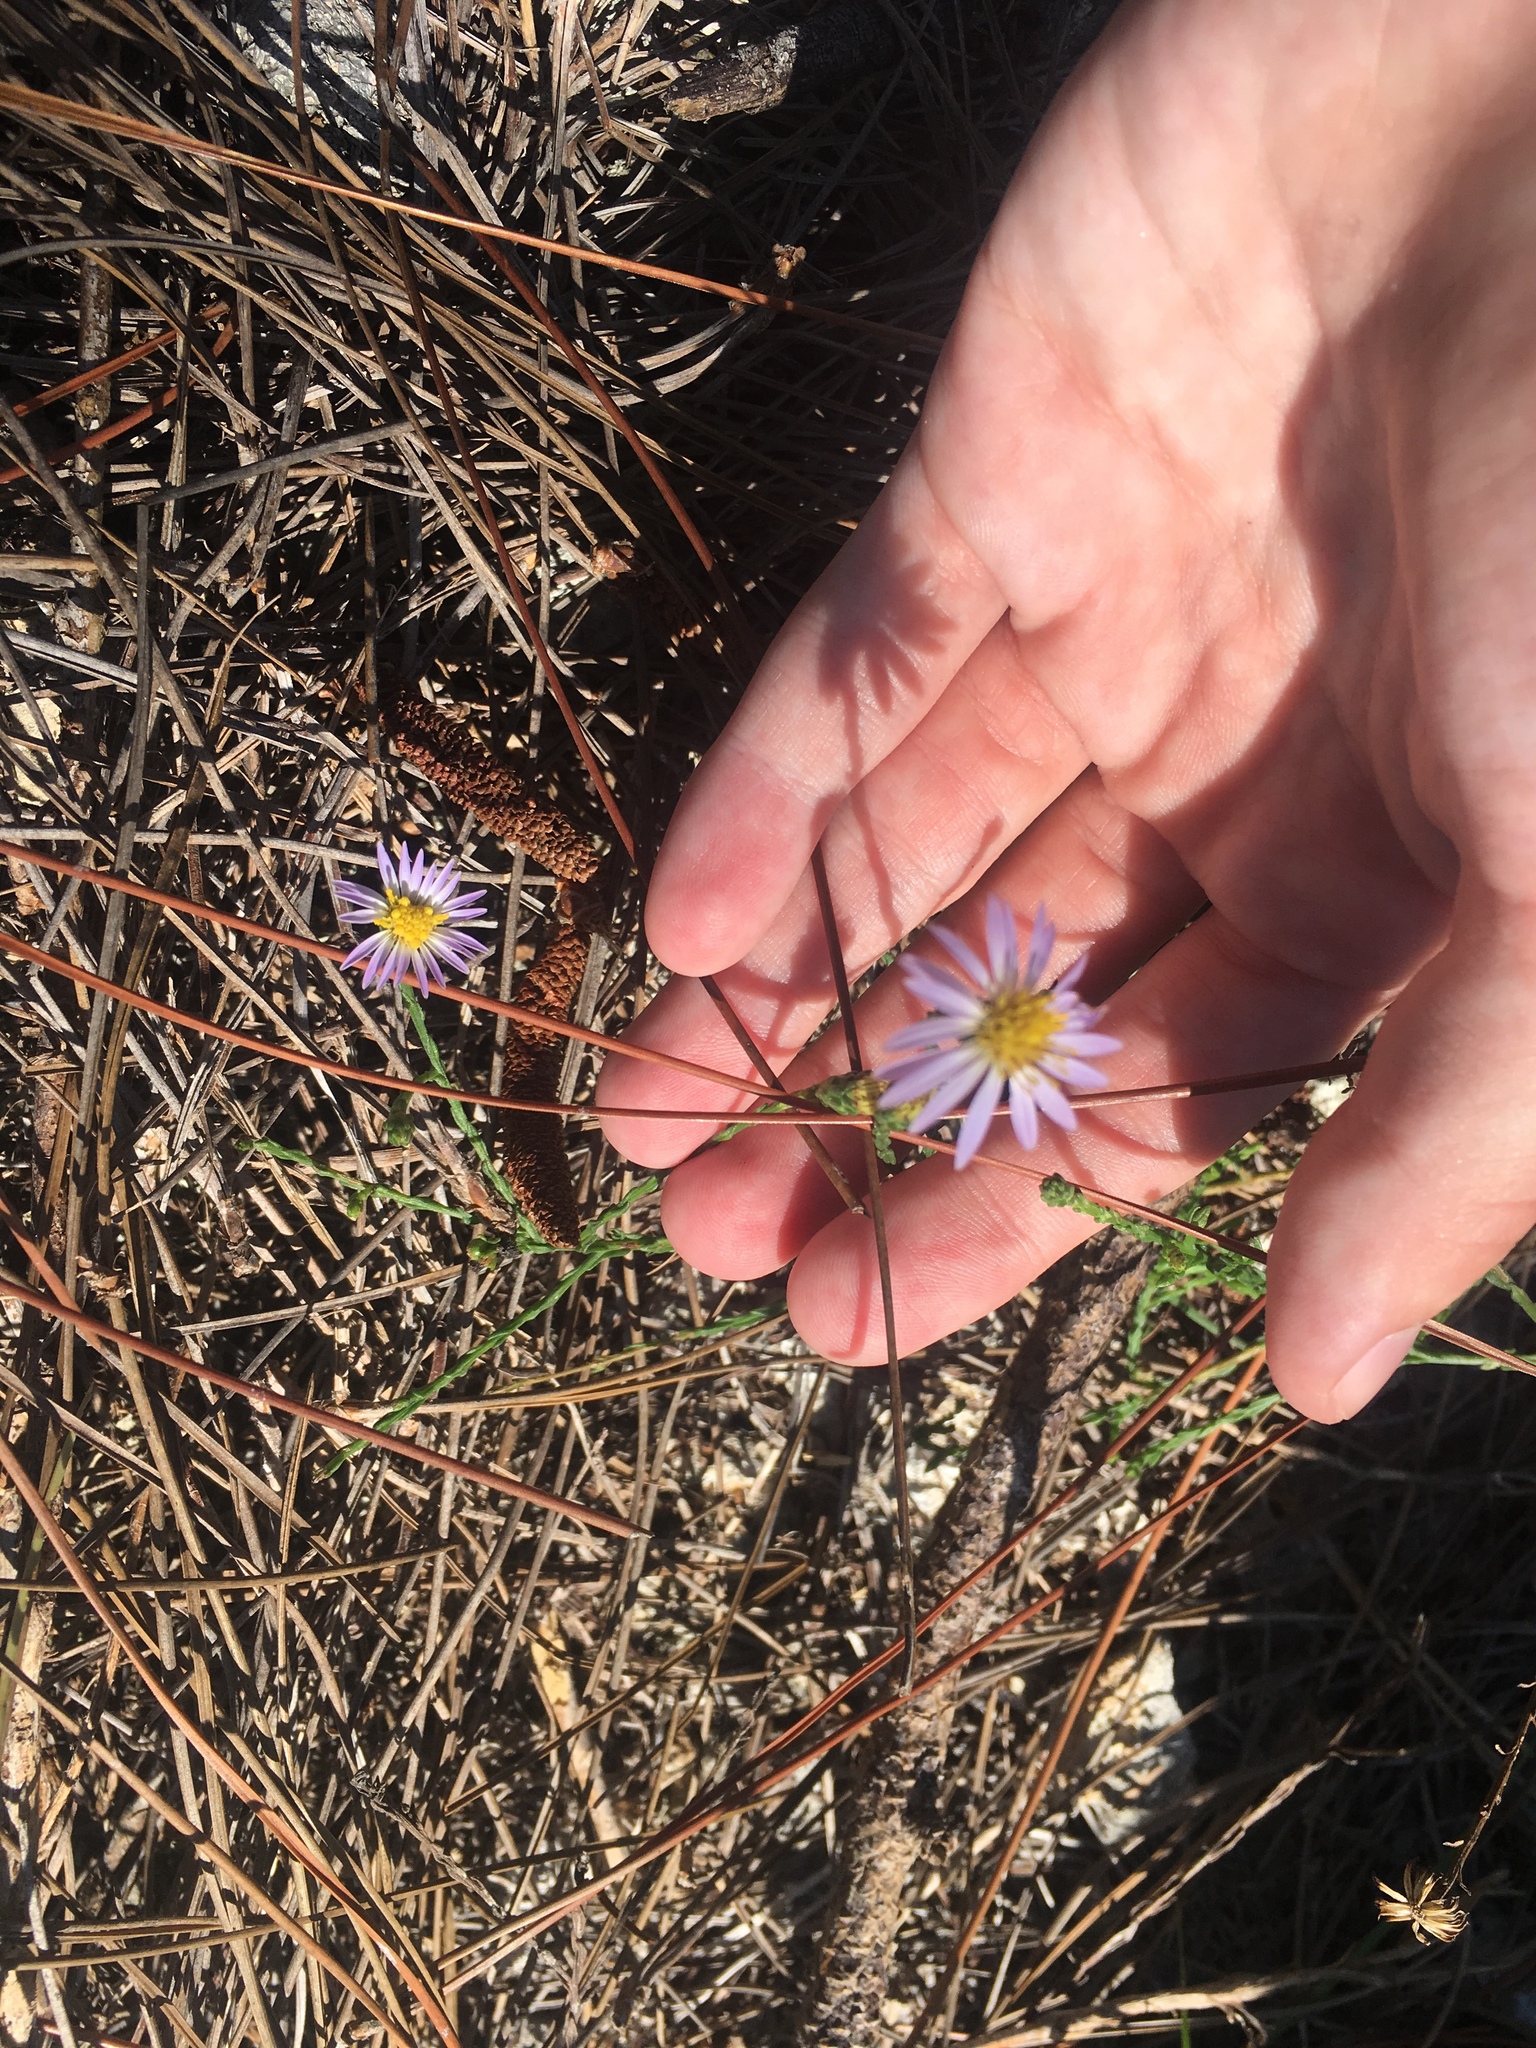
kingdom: Plantae
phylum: Tracheophyta
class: Magnoliopsida
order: Asterales
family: Asteraceae
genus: Symphyotrichum
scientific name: Symphyotrichum adnatum
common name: Scale-leaf aster
